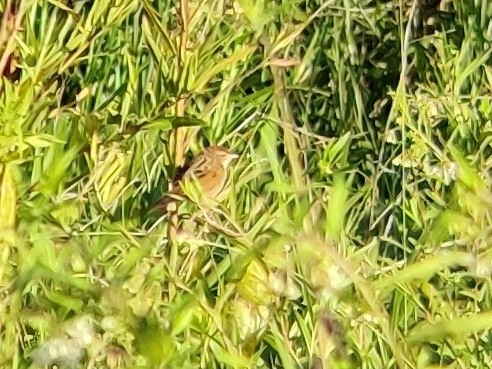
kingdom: Animalia
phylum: Chordata
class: Aves
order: Passeriformes
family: Locustellidae
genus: Megalurus
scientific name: Megalurus timoriensis
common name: Tawny grassbird
